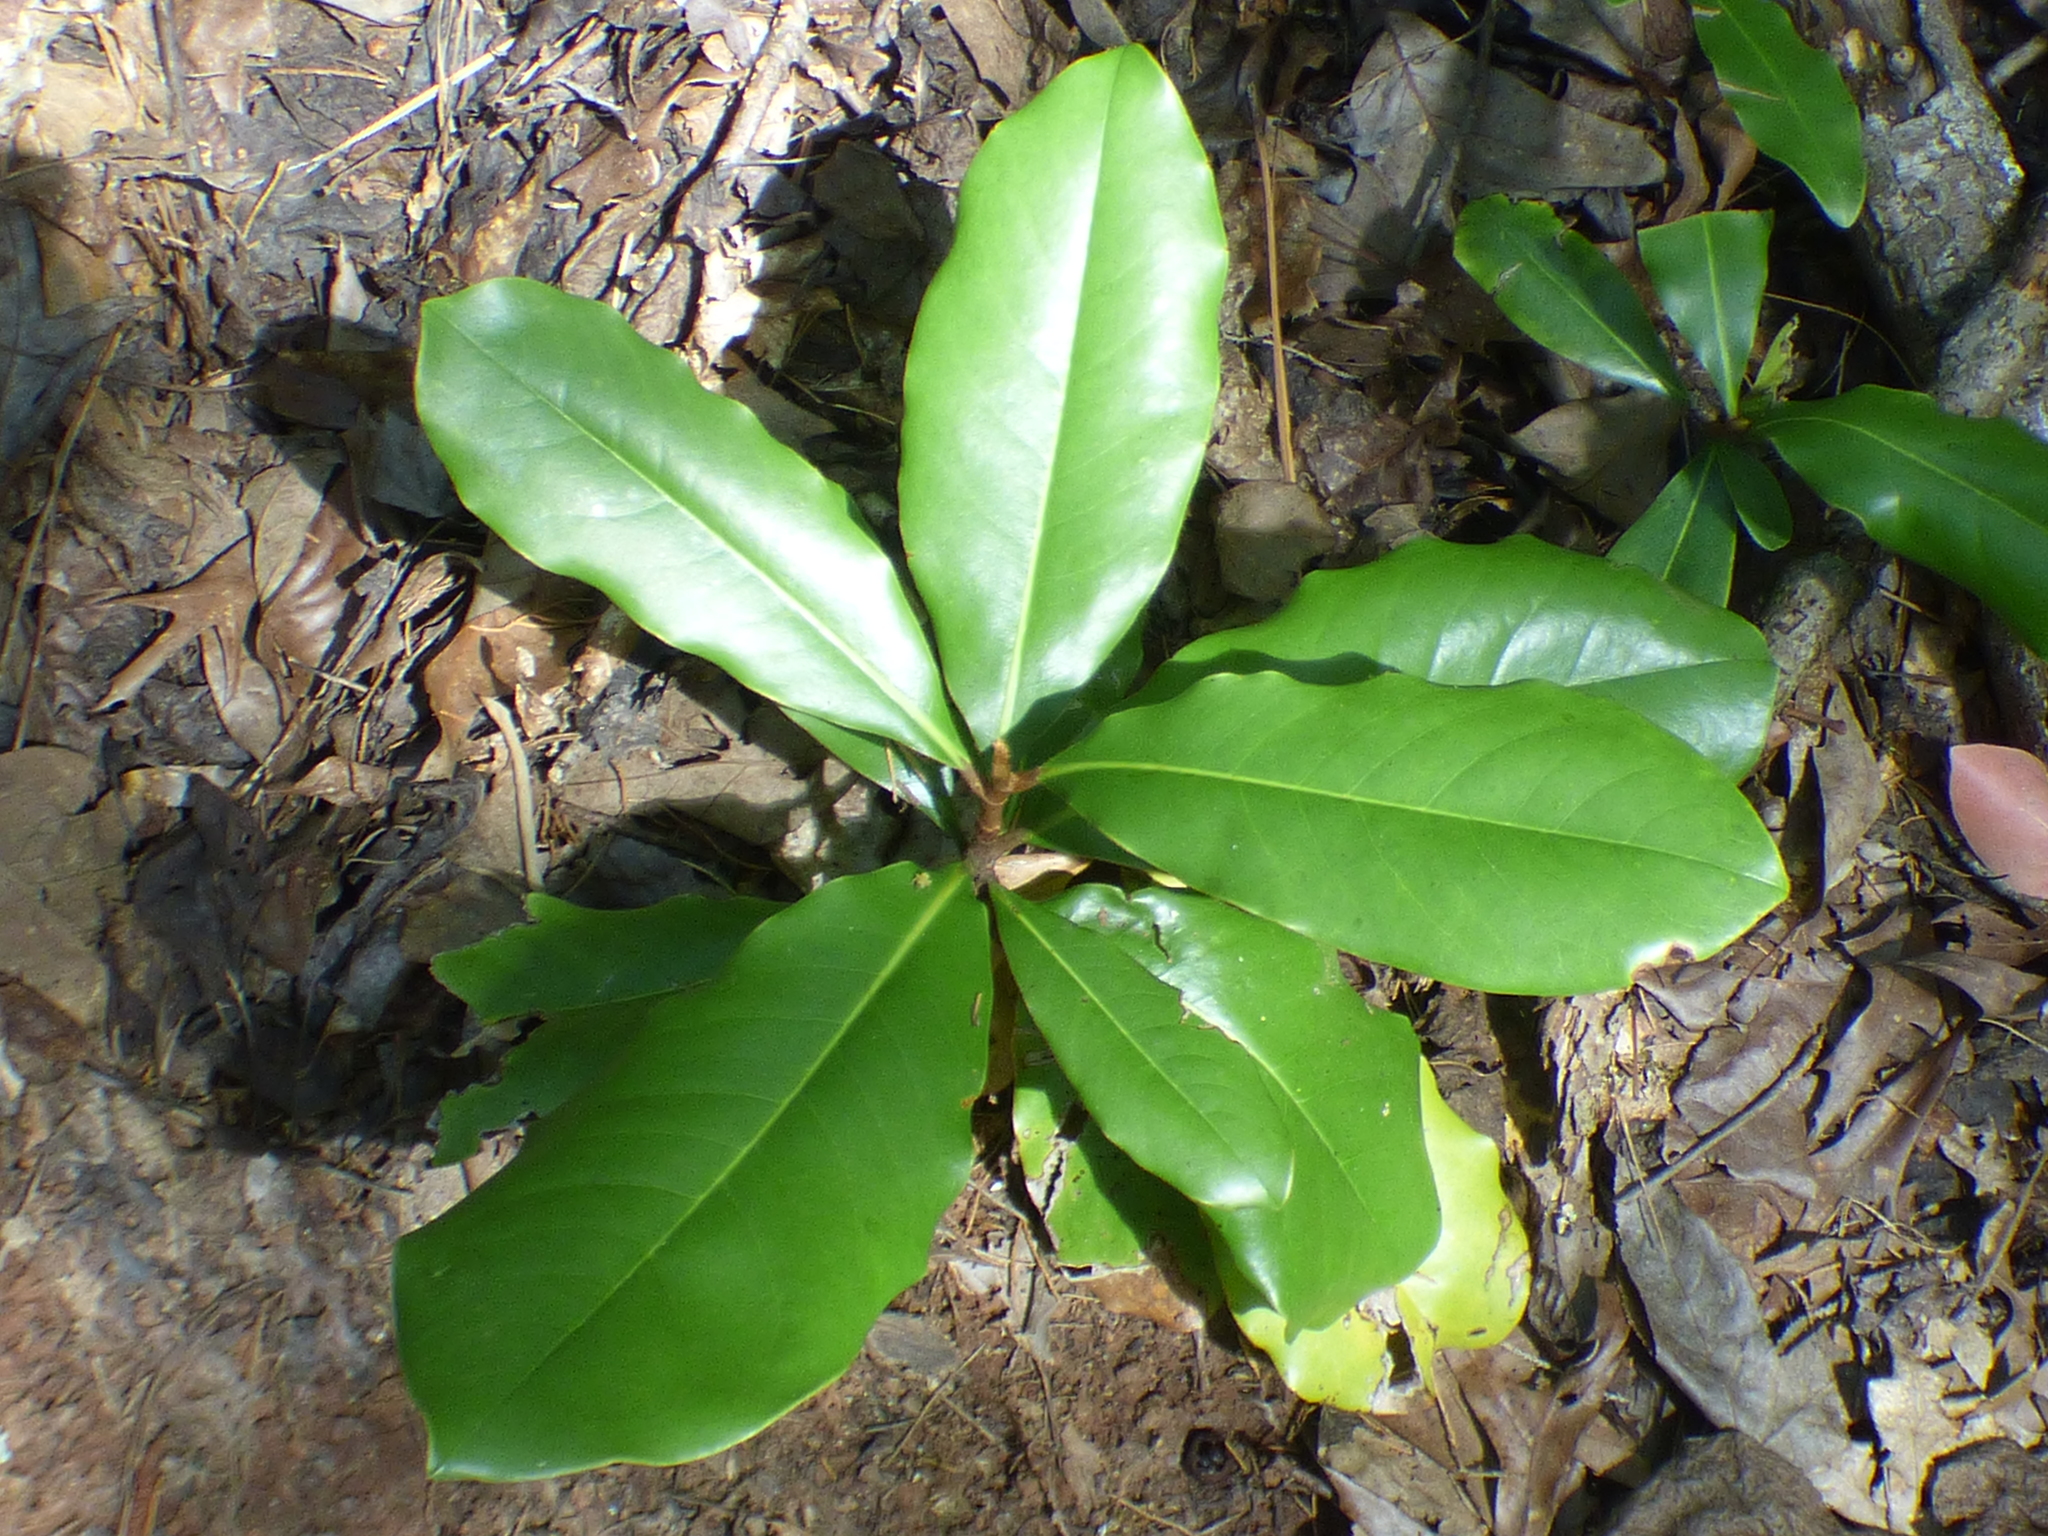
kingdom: Plantae
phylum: Tracheophyta
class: Magnoliopsida
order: Magnoliales
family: Magnoliaceae
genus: Magnolia
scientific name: Magnolia grandiflora
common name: Southern magnolia
